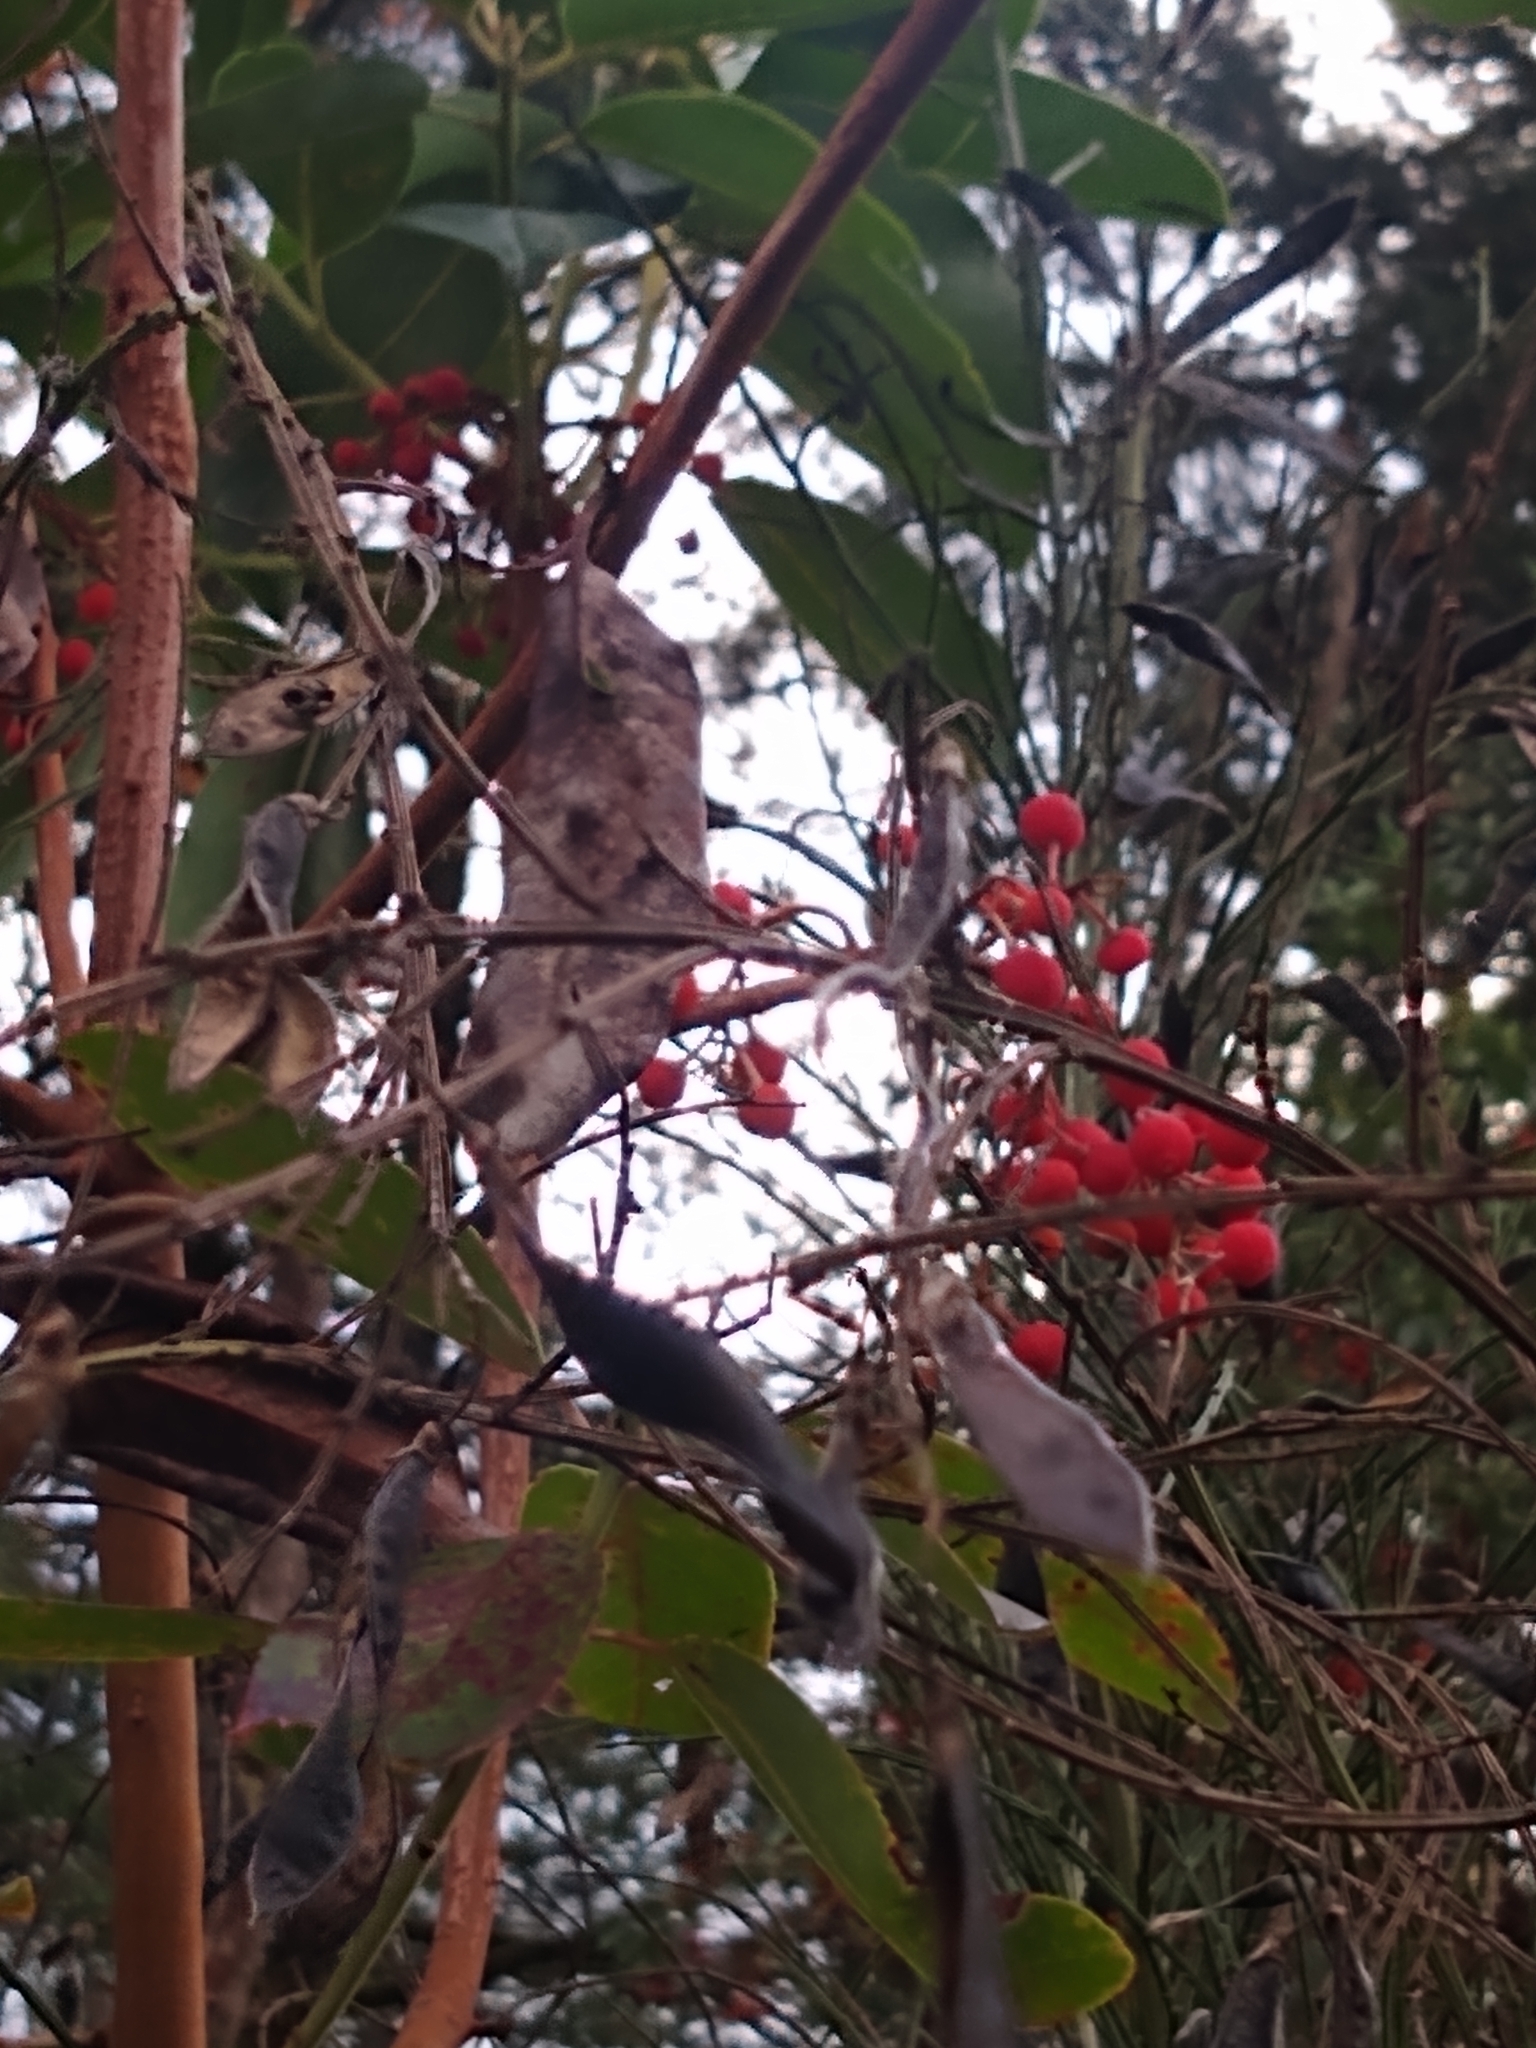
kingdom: Plantae
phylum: Tracheophyta
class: Magnoliopsida
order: Ericales
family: Ericaceae
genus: Arbutus
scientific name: Arbutus menziesii
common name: Pacific madrone
